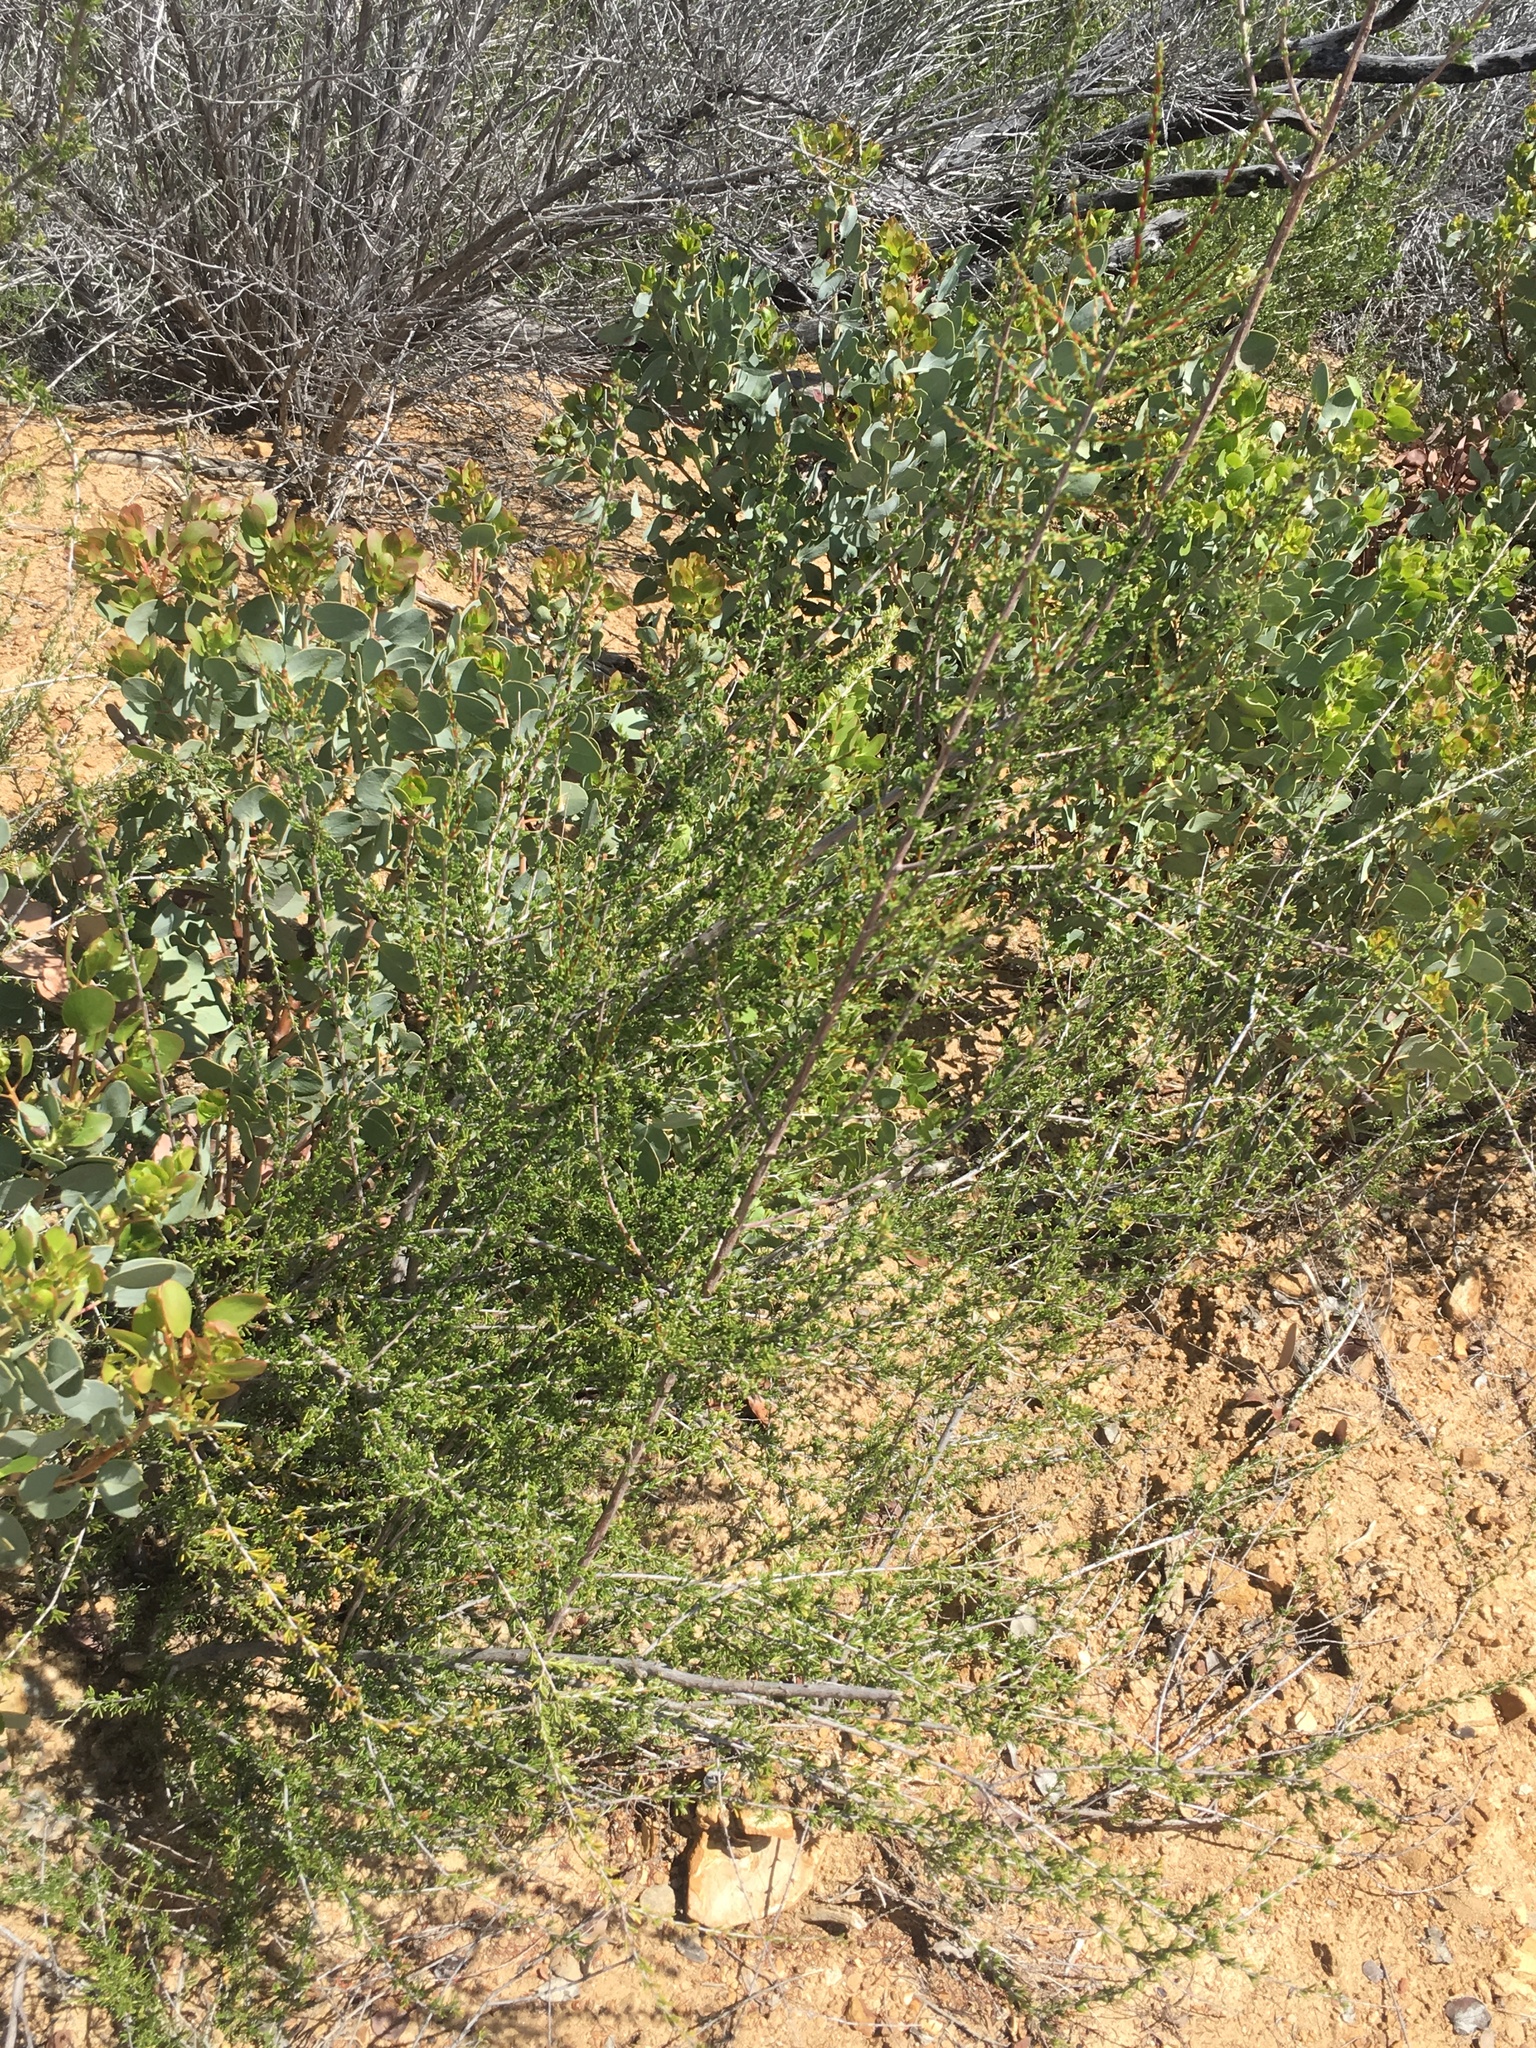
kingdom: Plantae
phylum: Tracheophyta
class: Magnoliopsida
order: Rosales
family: Rosaceae
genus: Adenostoma
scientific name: Adenostoma fasciculatum
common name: Chamise
